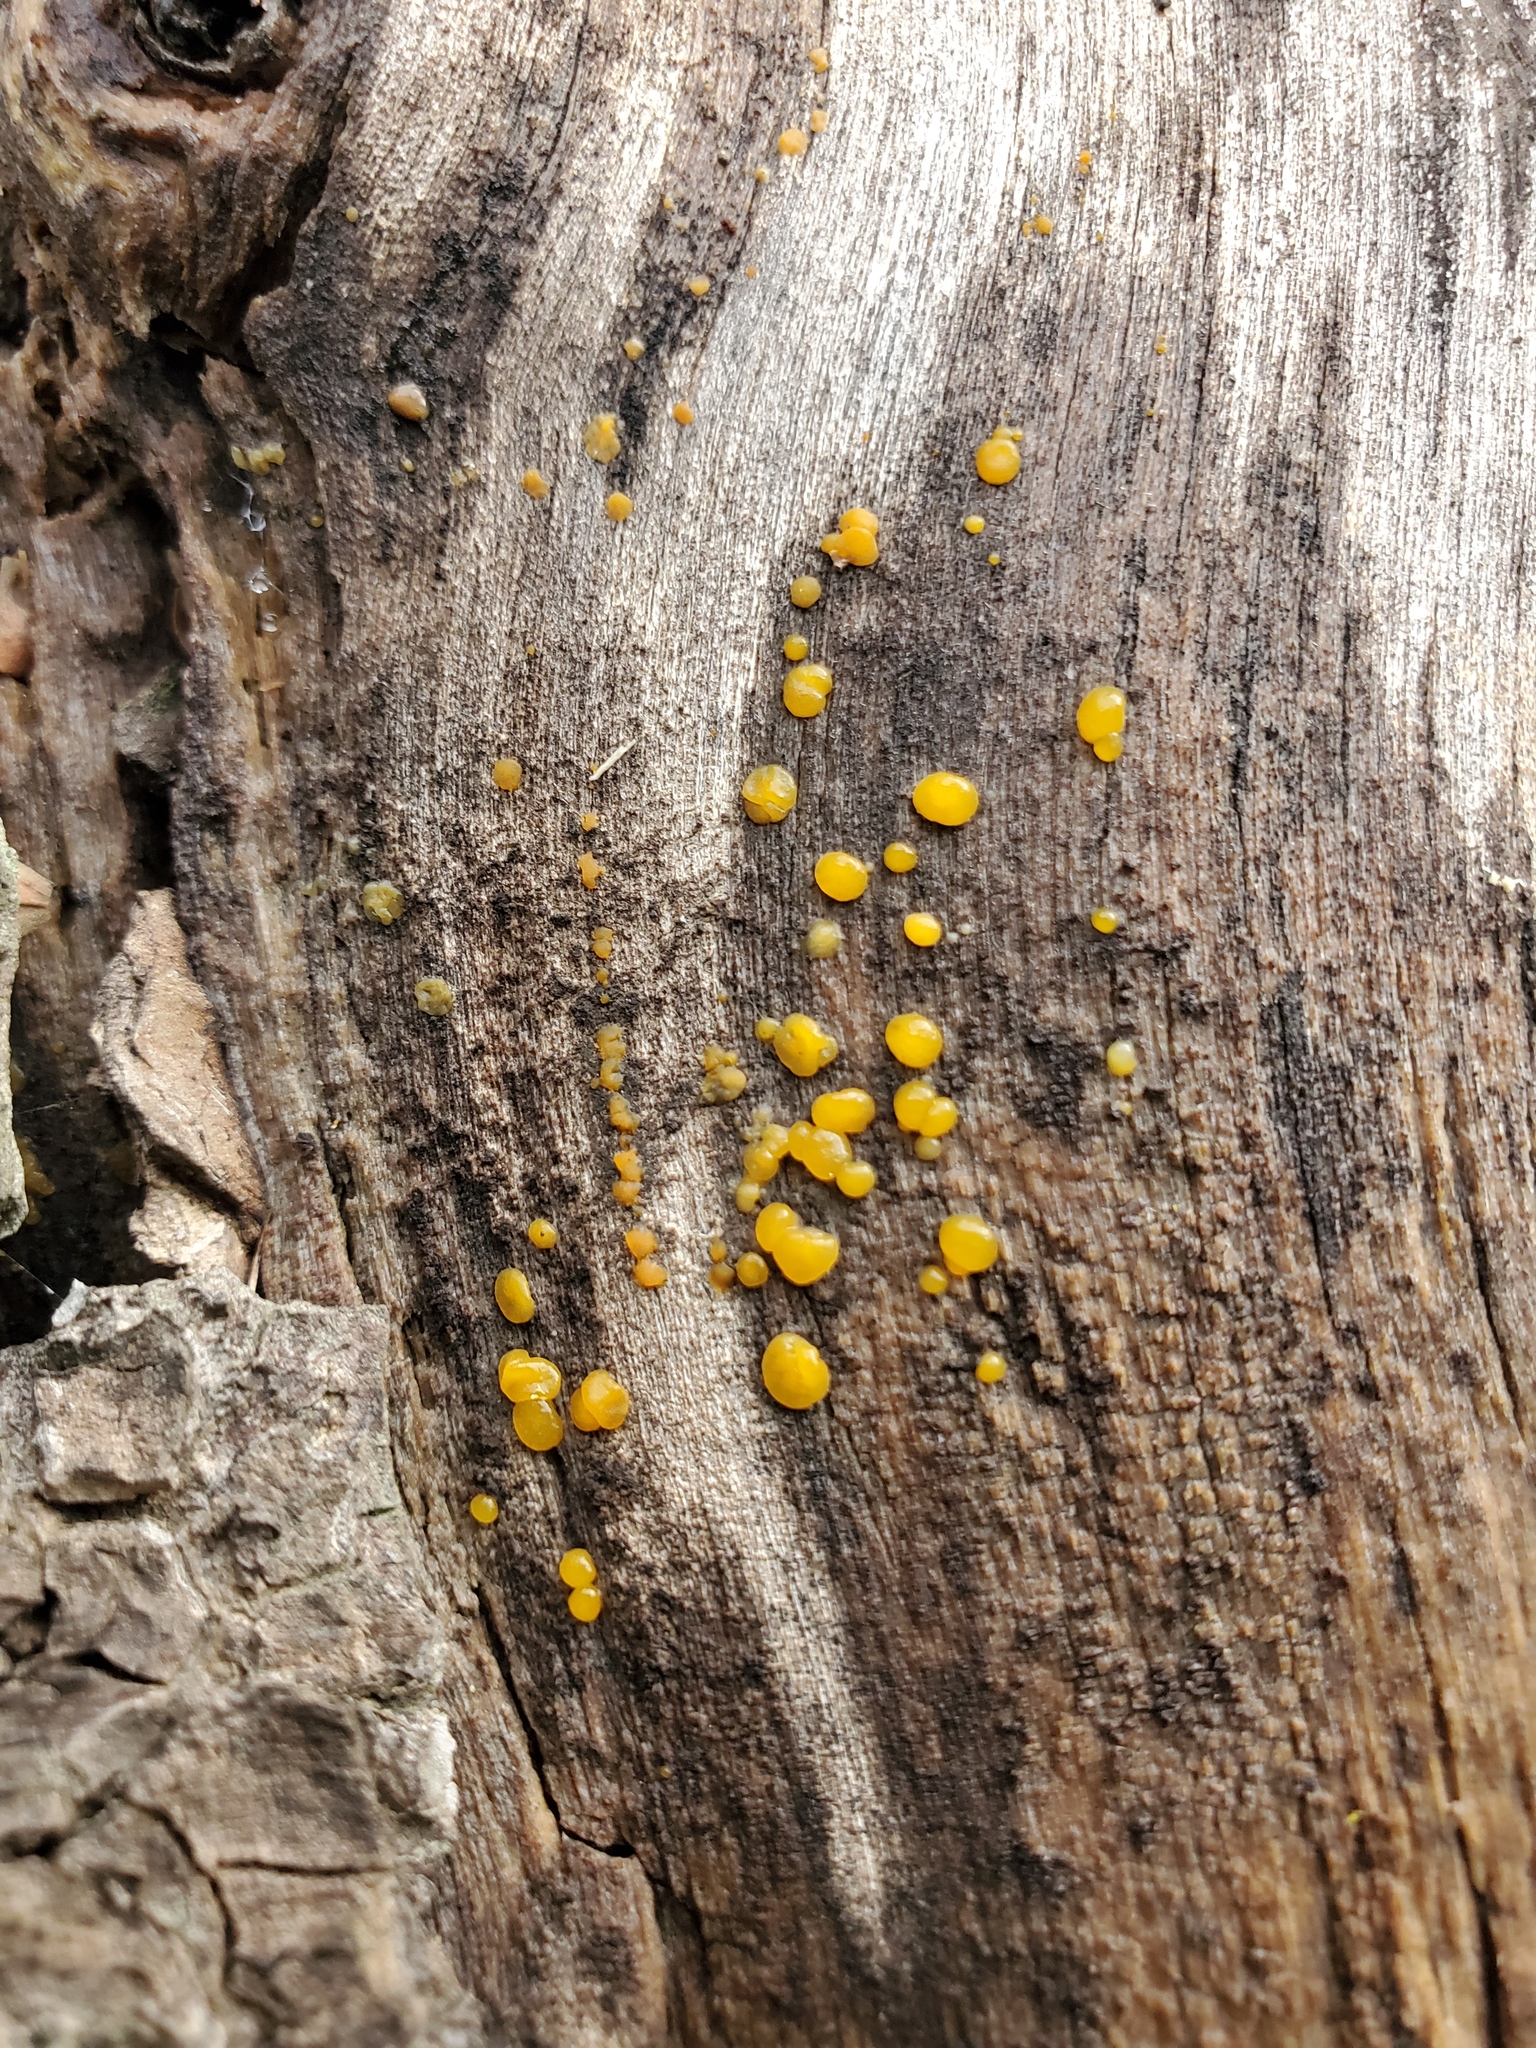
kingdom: Fungi
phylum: Basidiomycota
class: Dacrymycetes
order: Dacrymycetales
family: Dacrymycetaceae
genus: Dacrymyces
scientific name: Dacrymyces stillatus
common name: Common jelly spot
